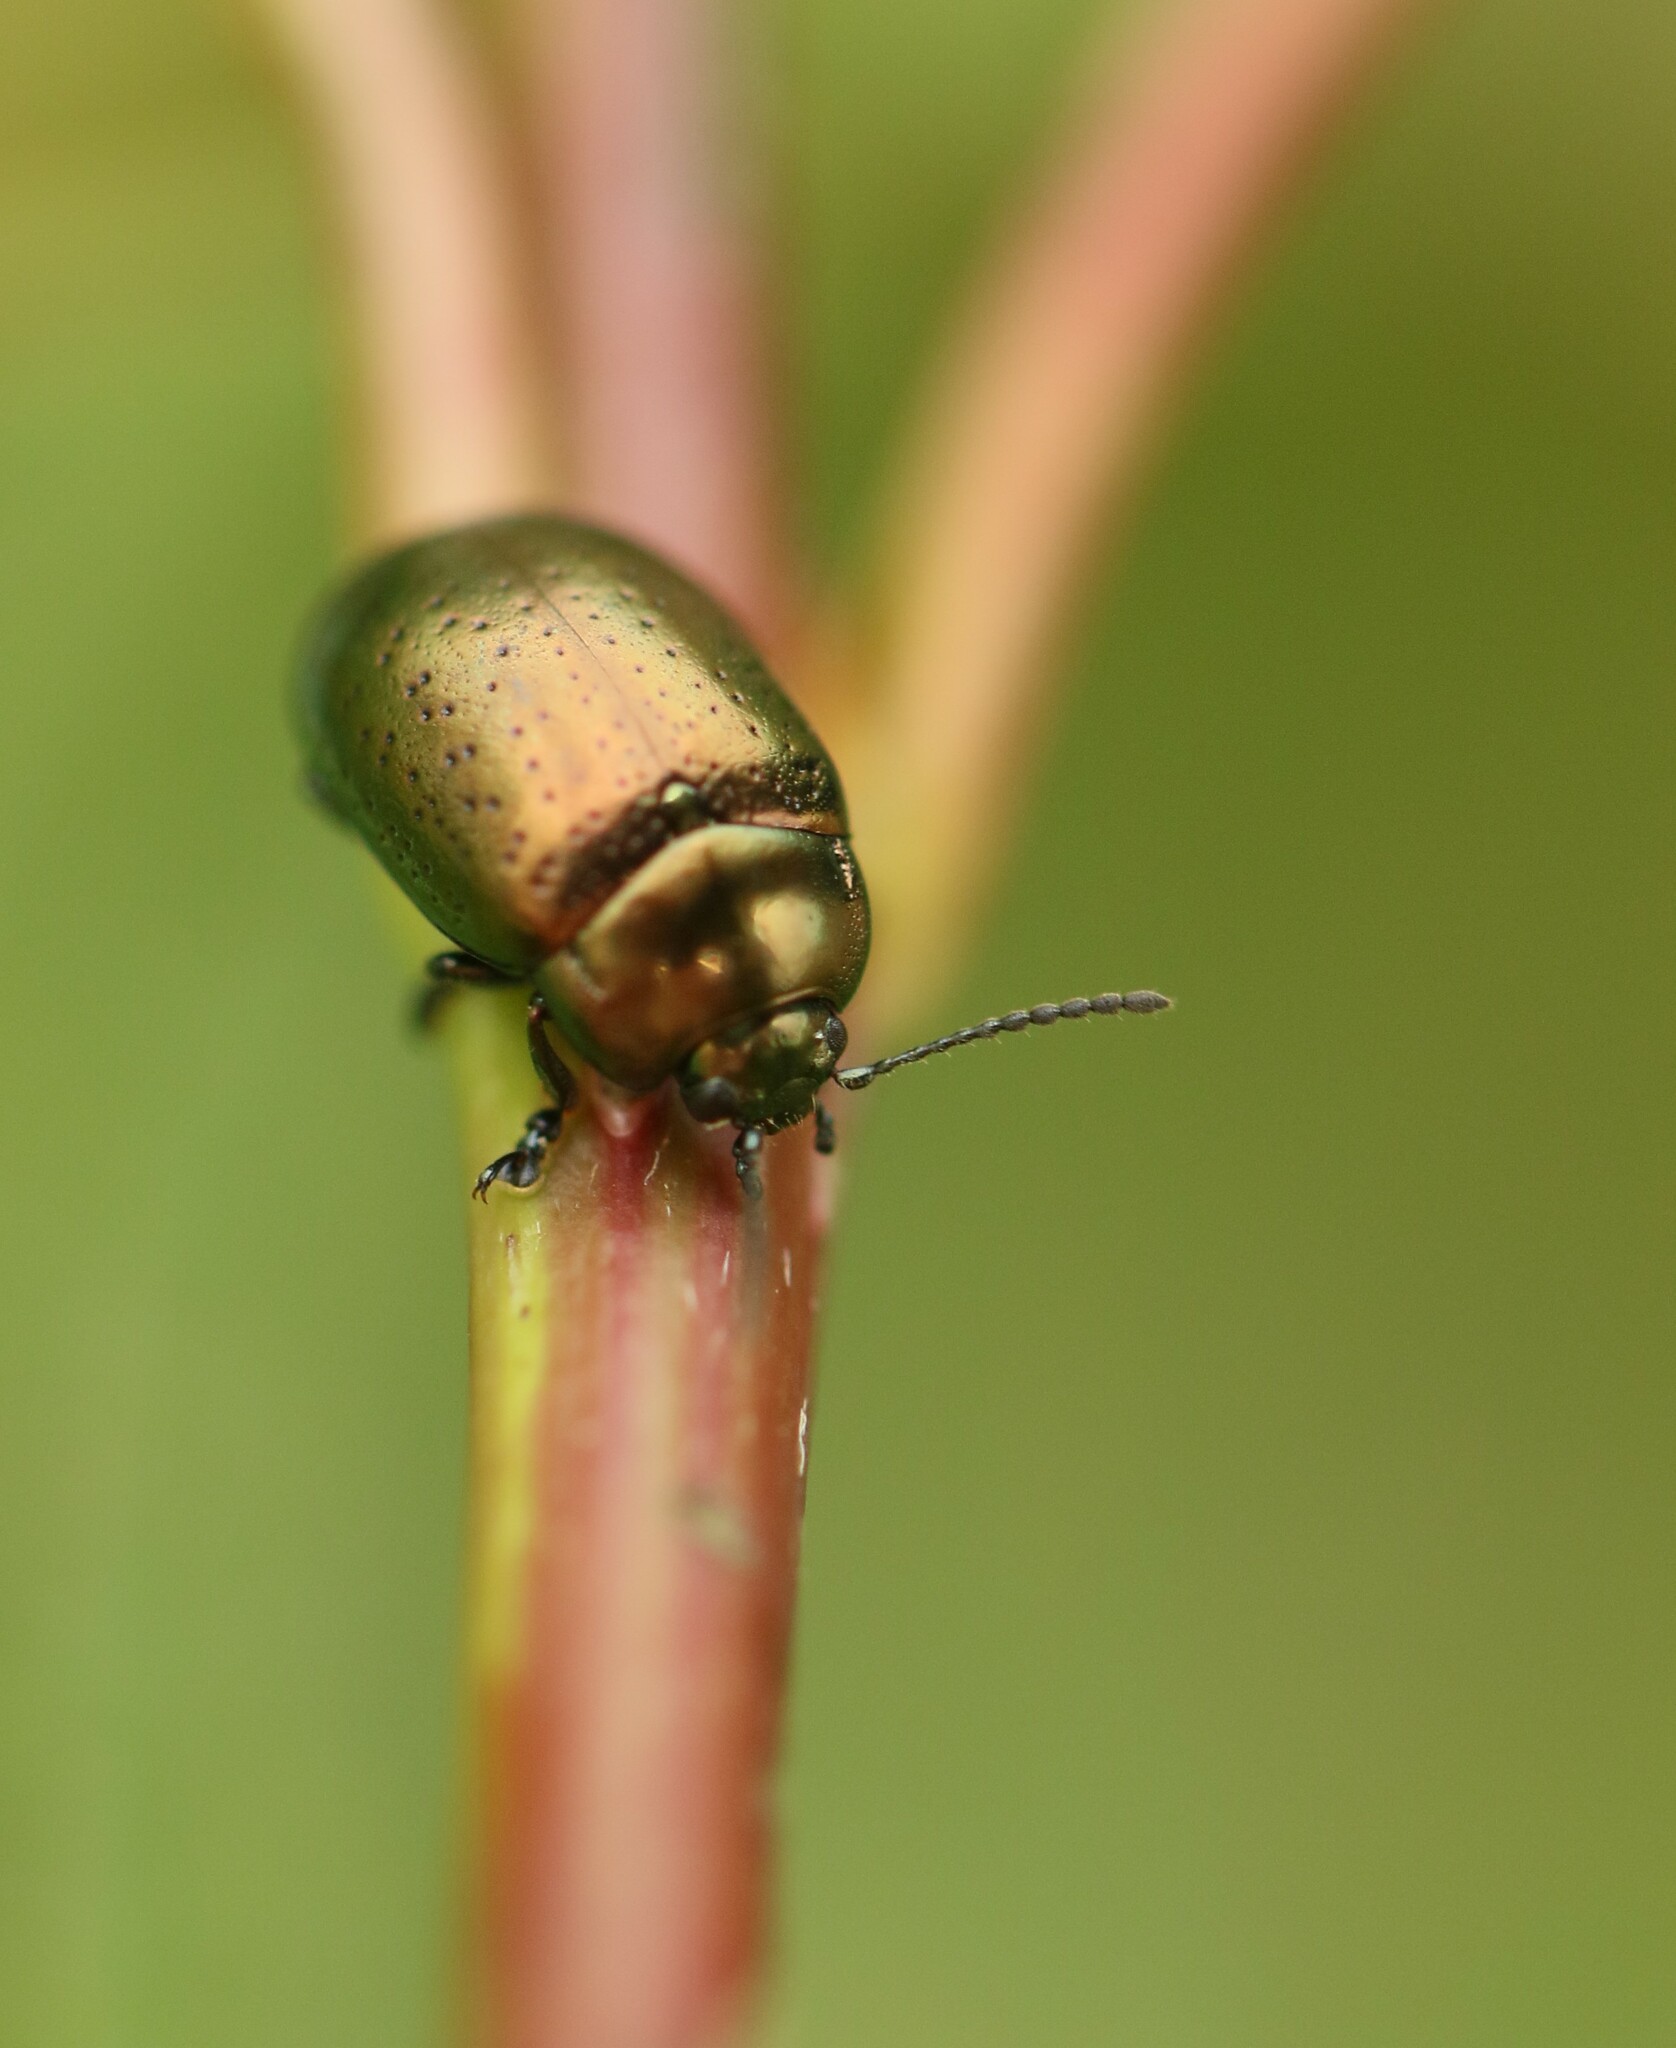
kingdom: Animalia
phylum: Arthropoda
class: Insecta
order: Coleoptera
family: Chrysomelidae
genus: Chrysolina
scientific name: Chrysolina hyperici
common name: St. johnswort beetle
